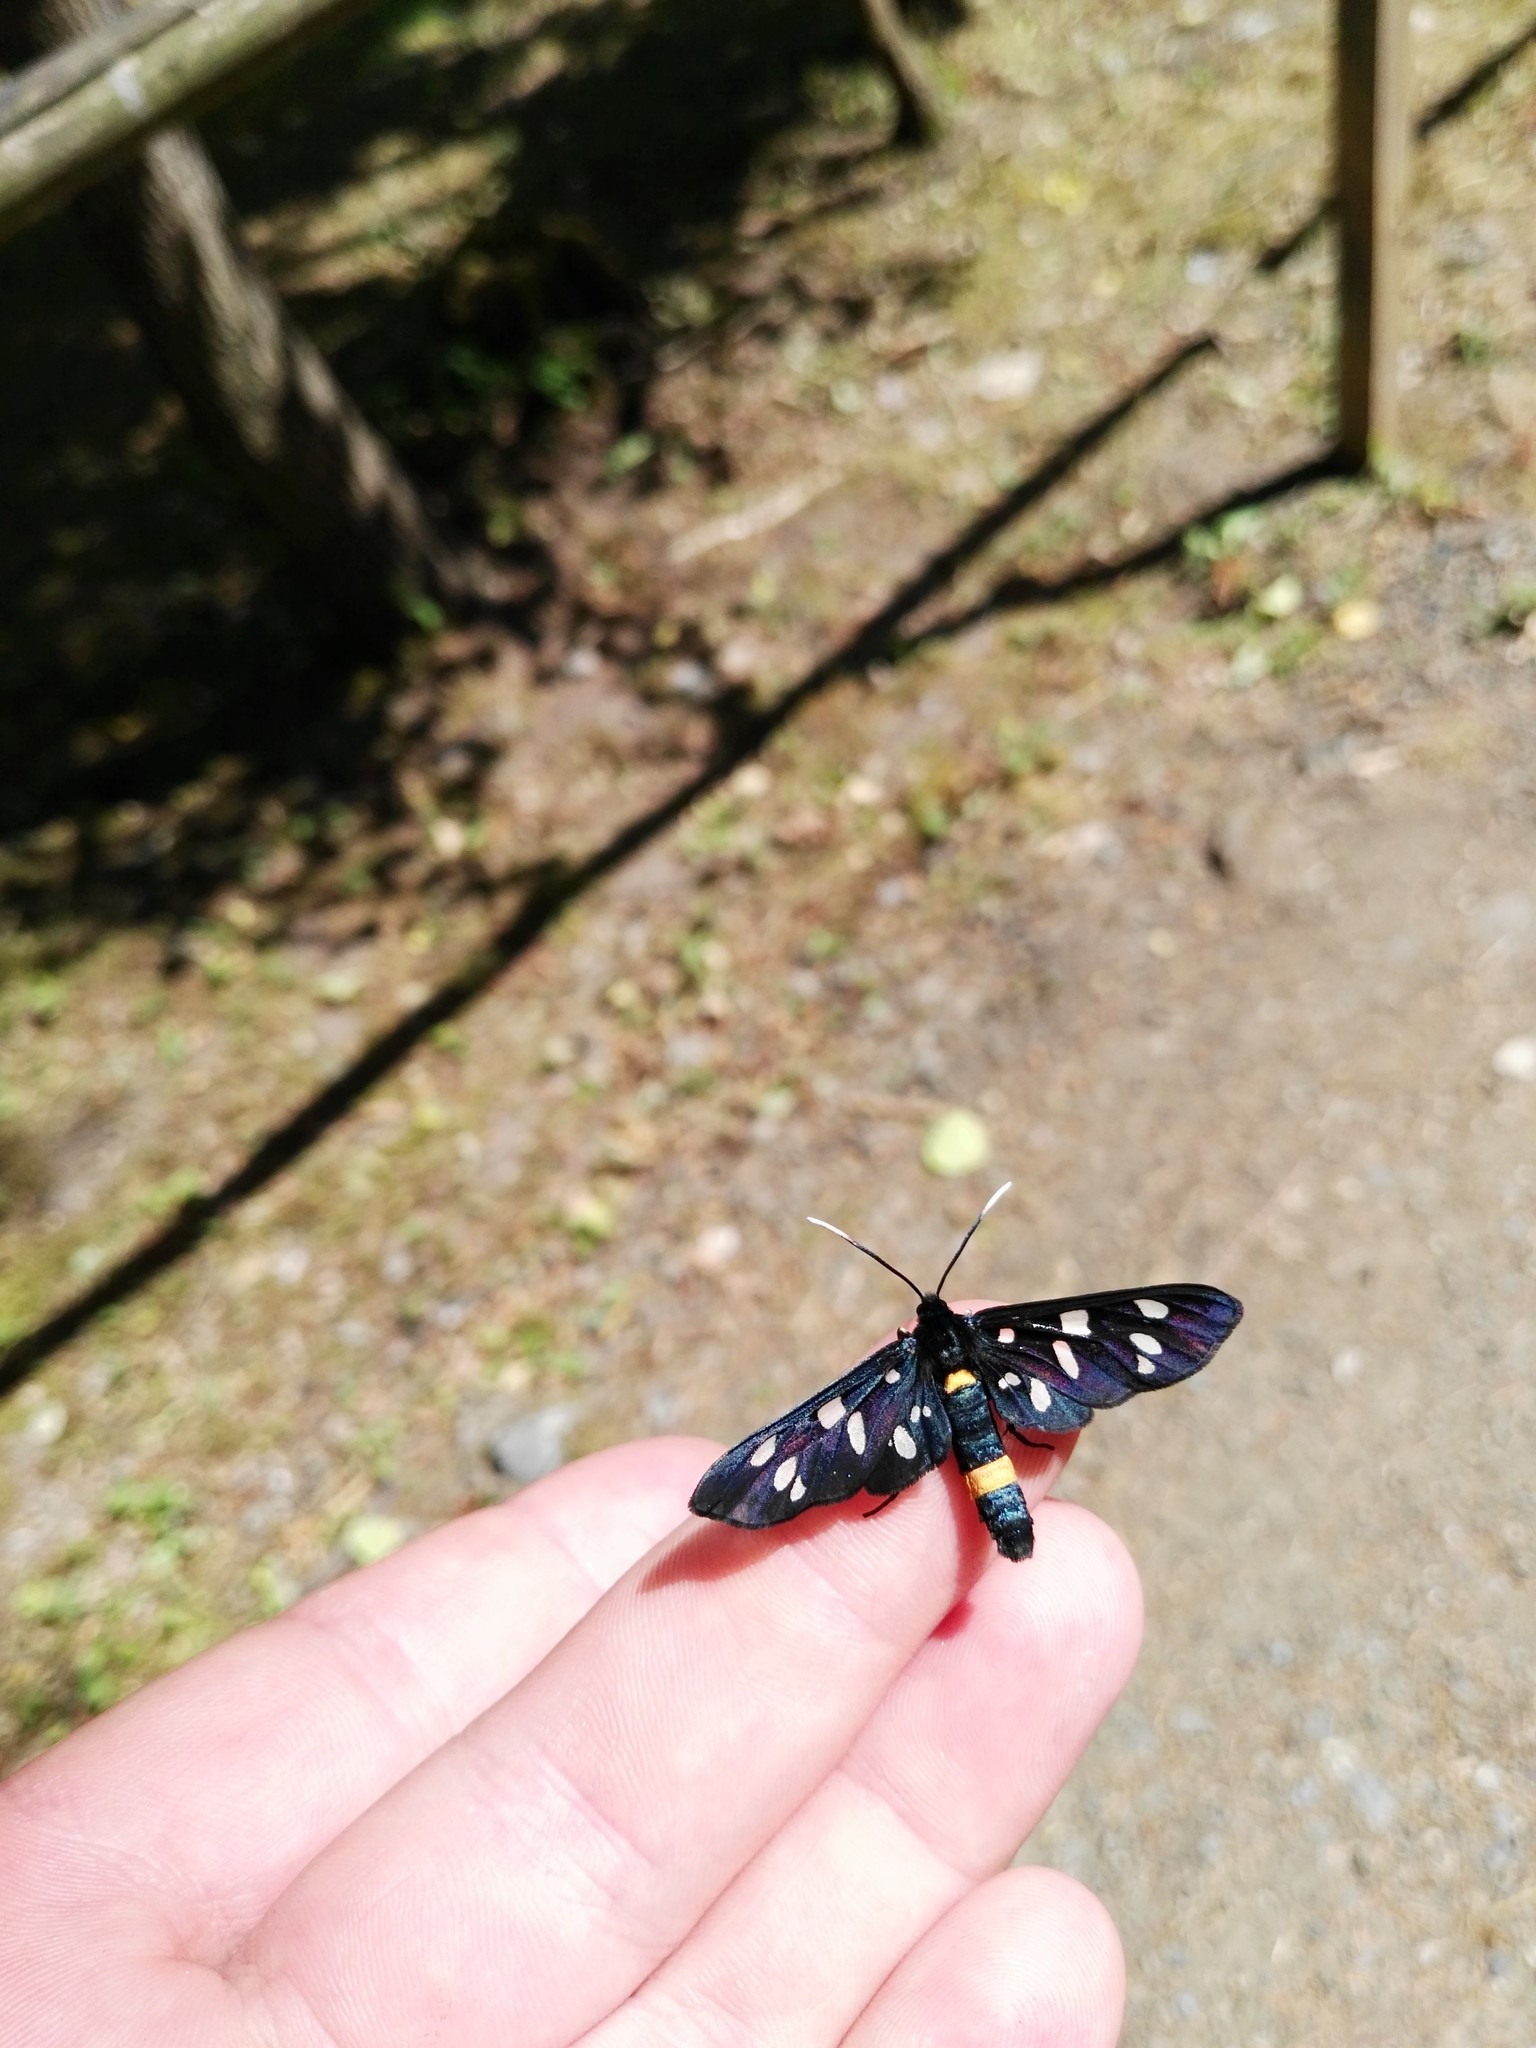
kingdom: Animalia
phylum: Arthropoda
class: Insecta
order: Lepidoptera
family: Erebidae
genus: Amata
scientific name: Amata phegea
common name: Nine-spotted
